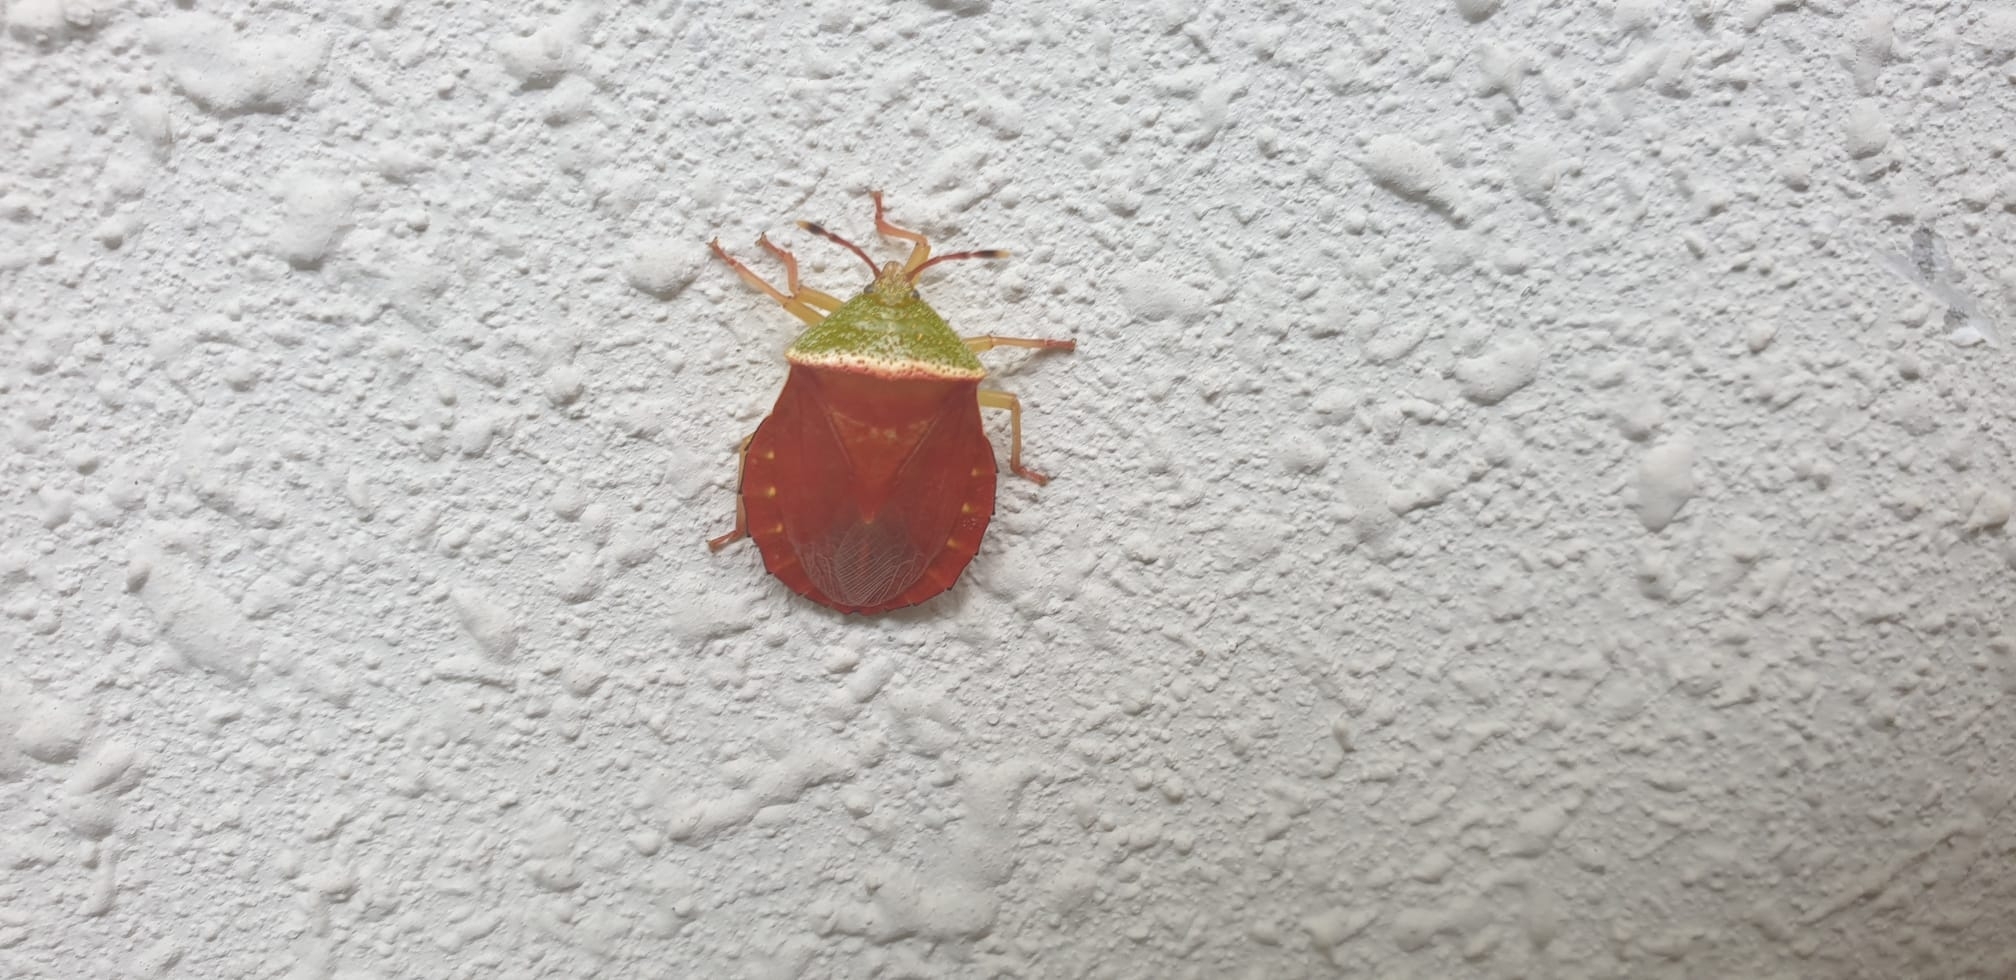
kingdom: Animalia
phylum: Arthropoda
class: Insecta
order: Hemiptera
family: Tessaratomidae
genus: Enada
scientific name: Enada rosea
